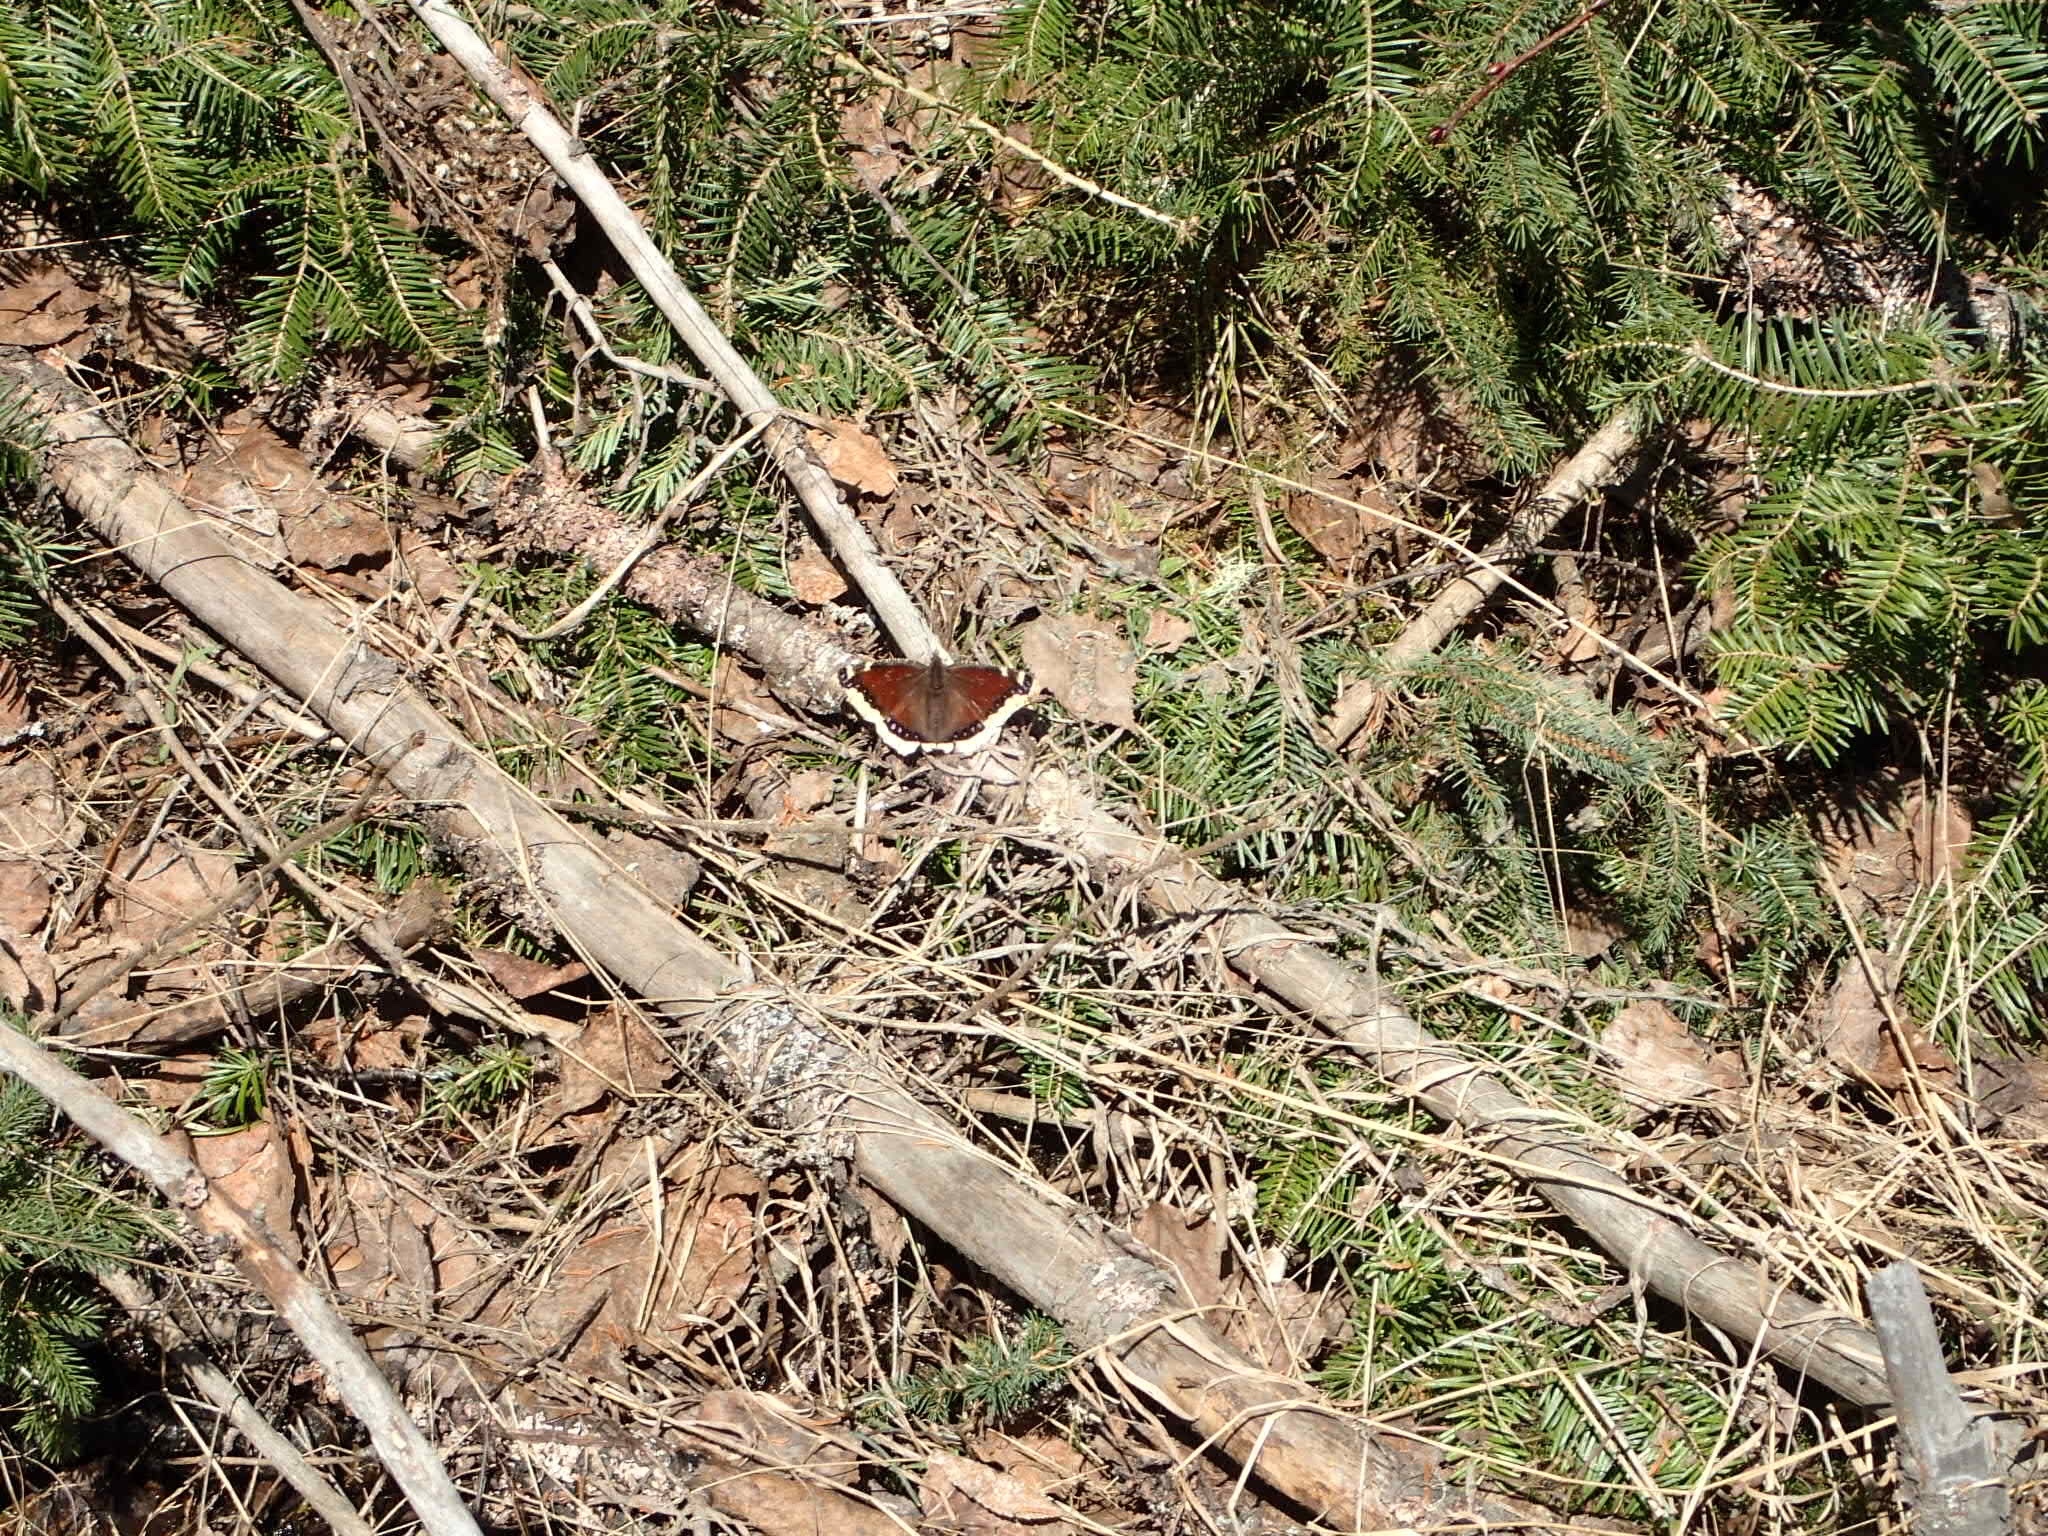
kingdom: Animalia
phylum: Arthropoda
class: Insecta
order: Lepidoptera
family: Nymphalidae
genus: Nymphalis
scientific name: Nymphalis antiopa
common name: Camberwell beauty
